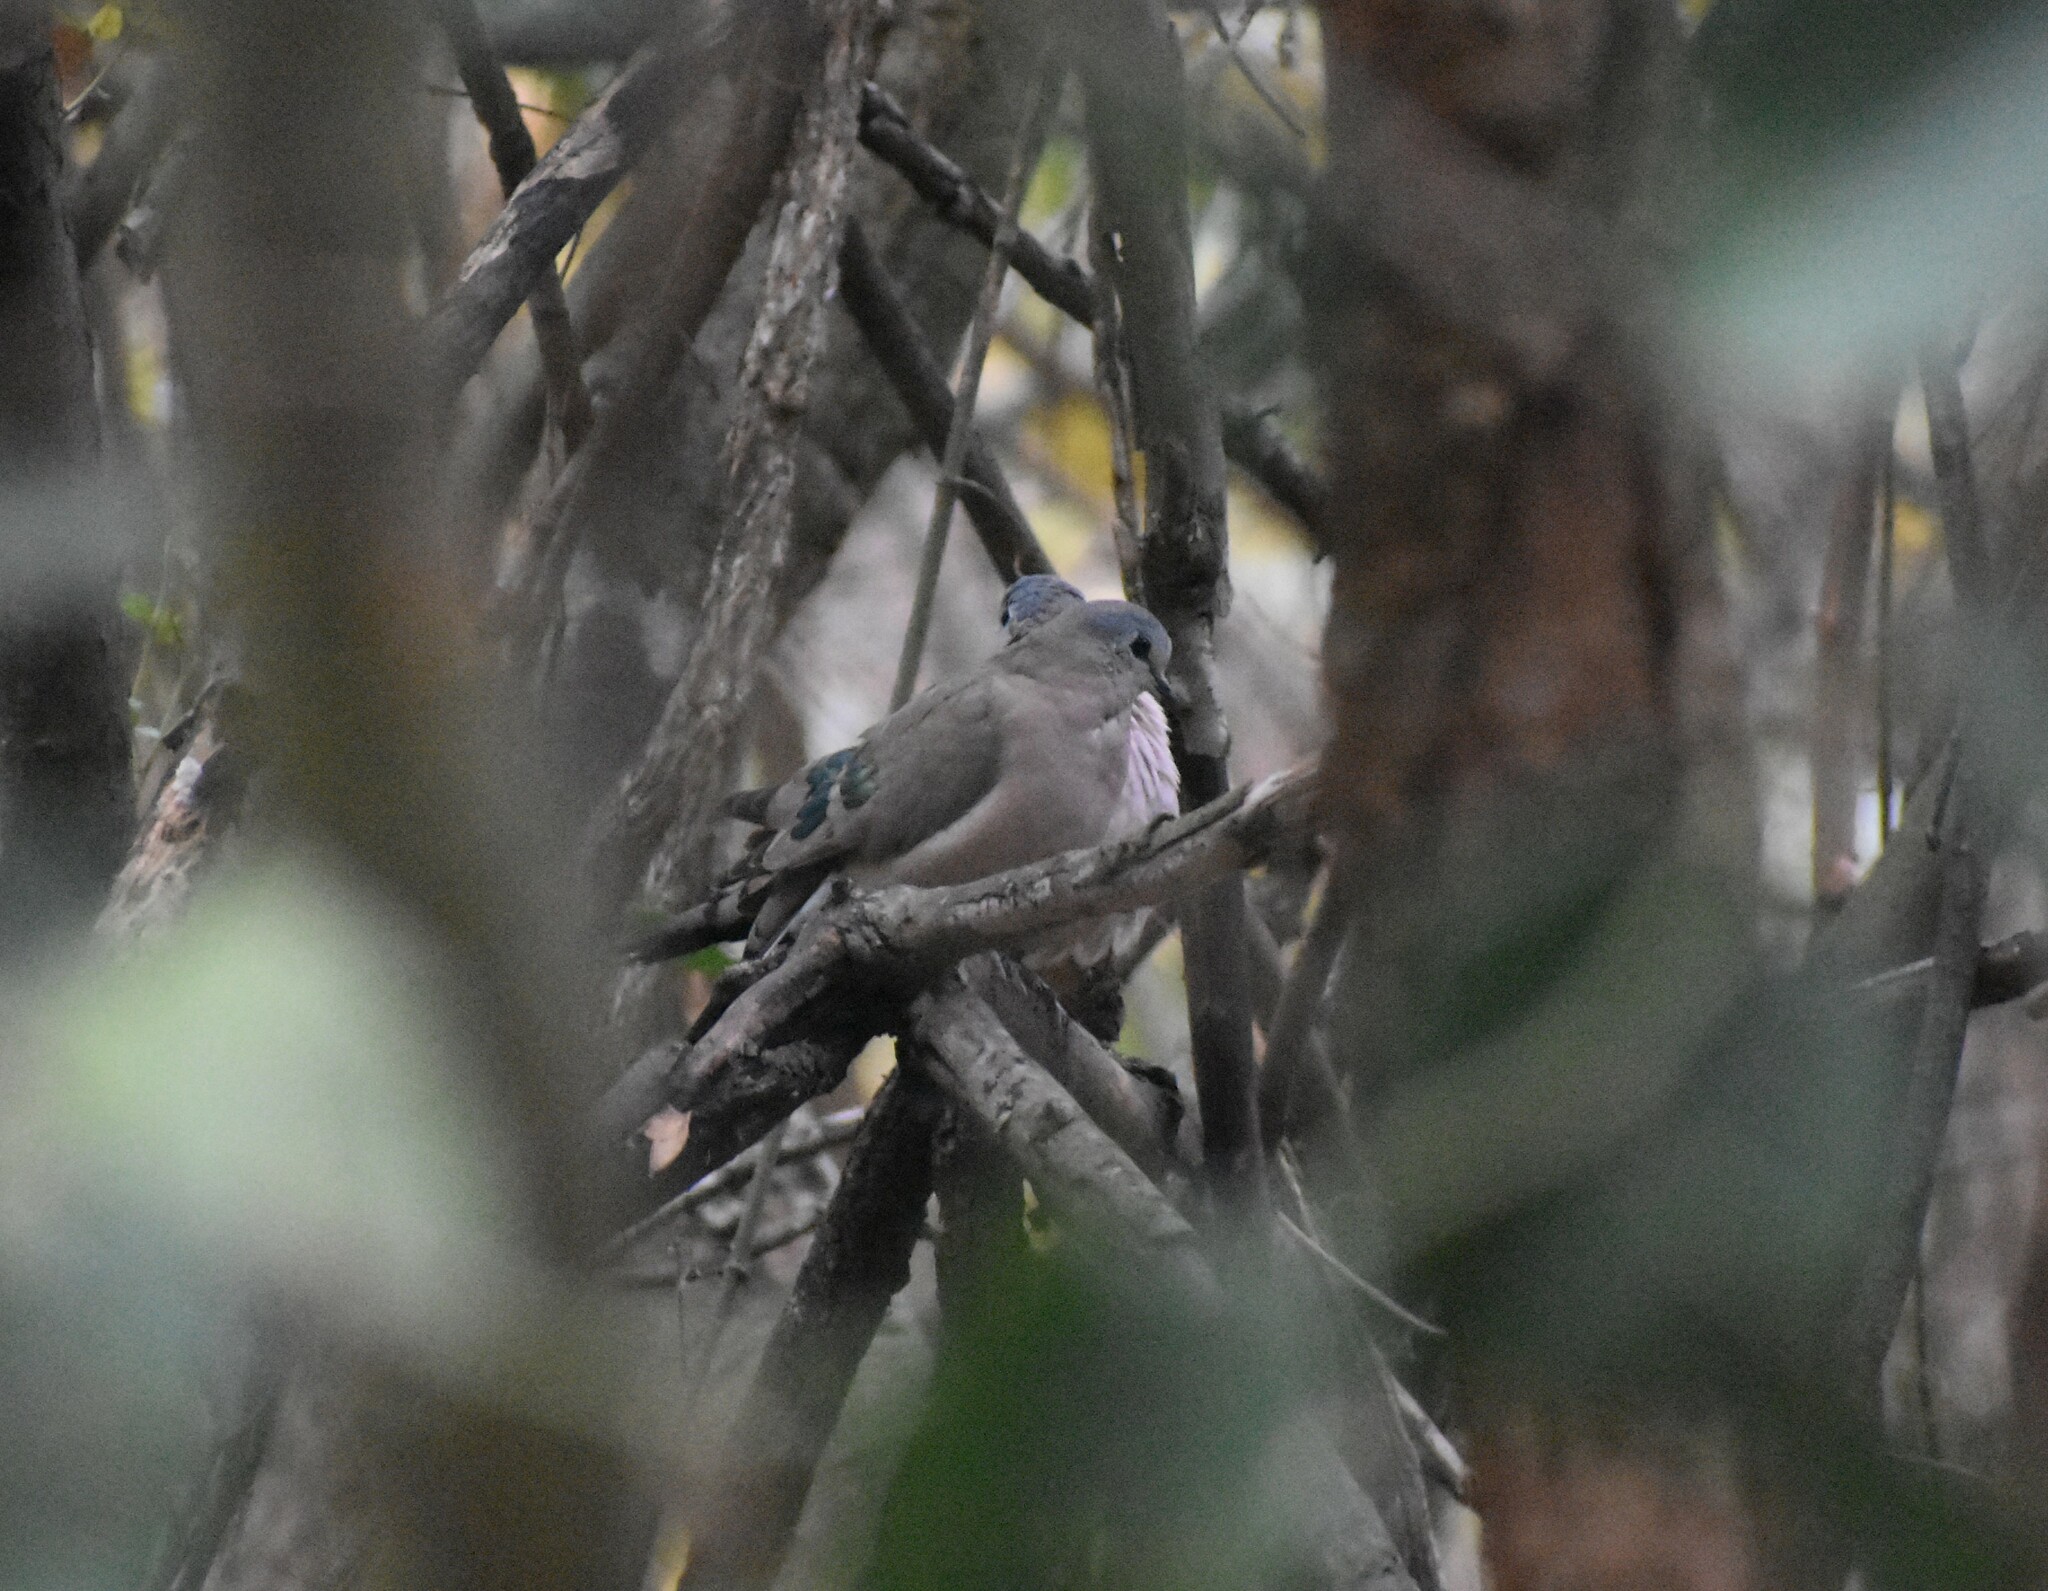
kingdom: Animalia
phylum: Chordata
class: Aves
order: Columbiformes
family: Columbidae
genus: Turtur
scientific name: Turtur chalcospilos
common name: Emerald-spotted wood dove
